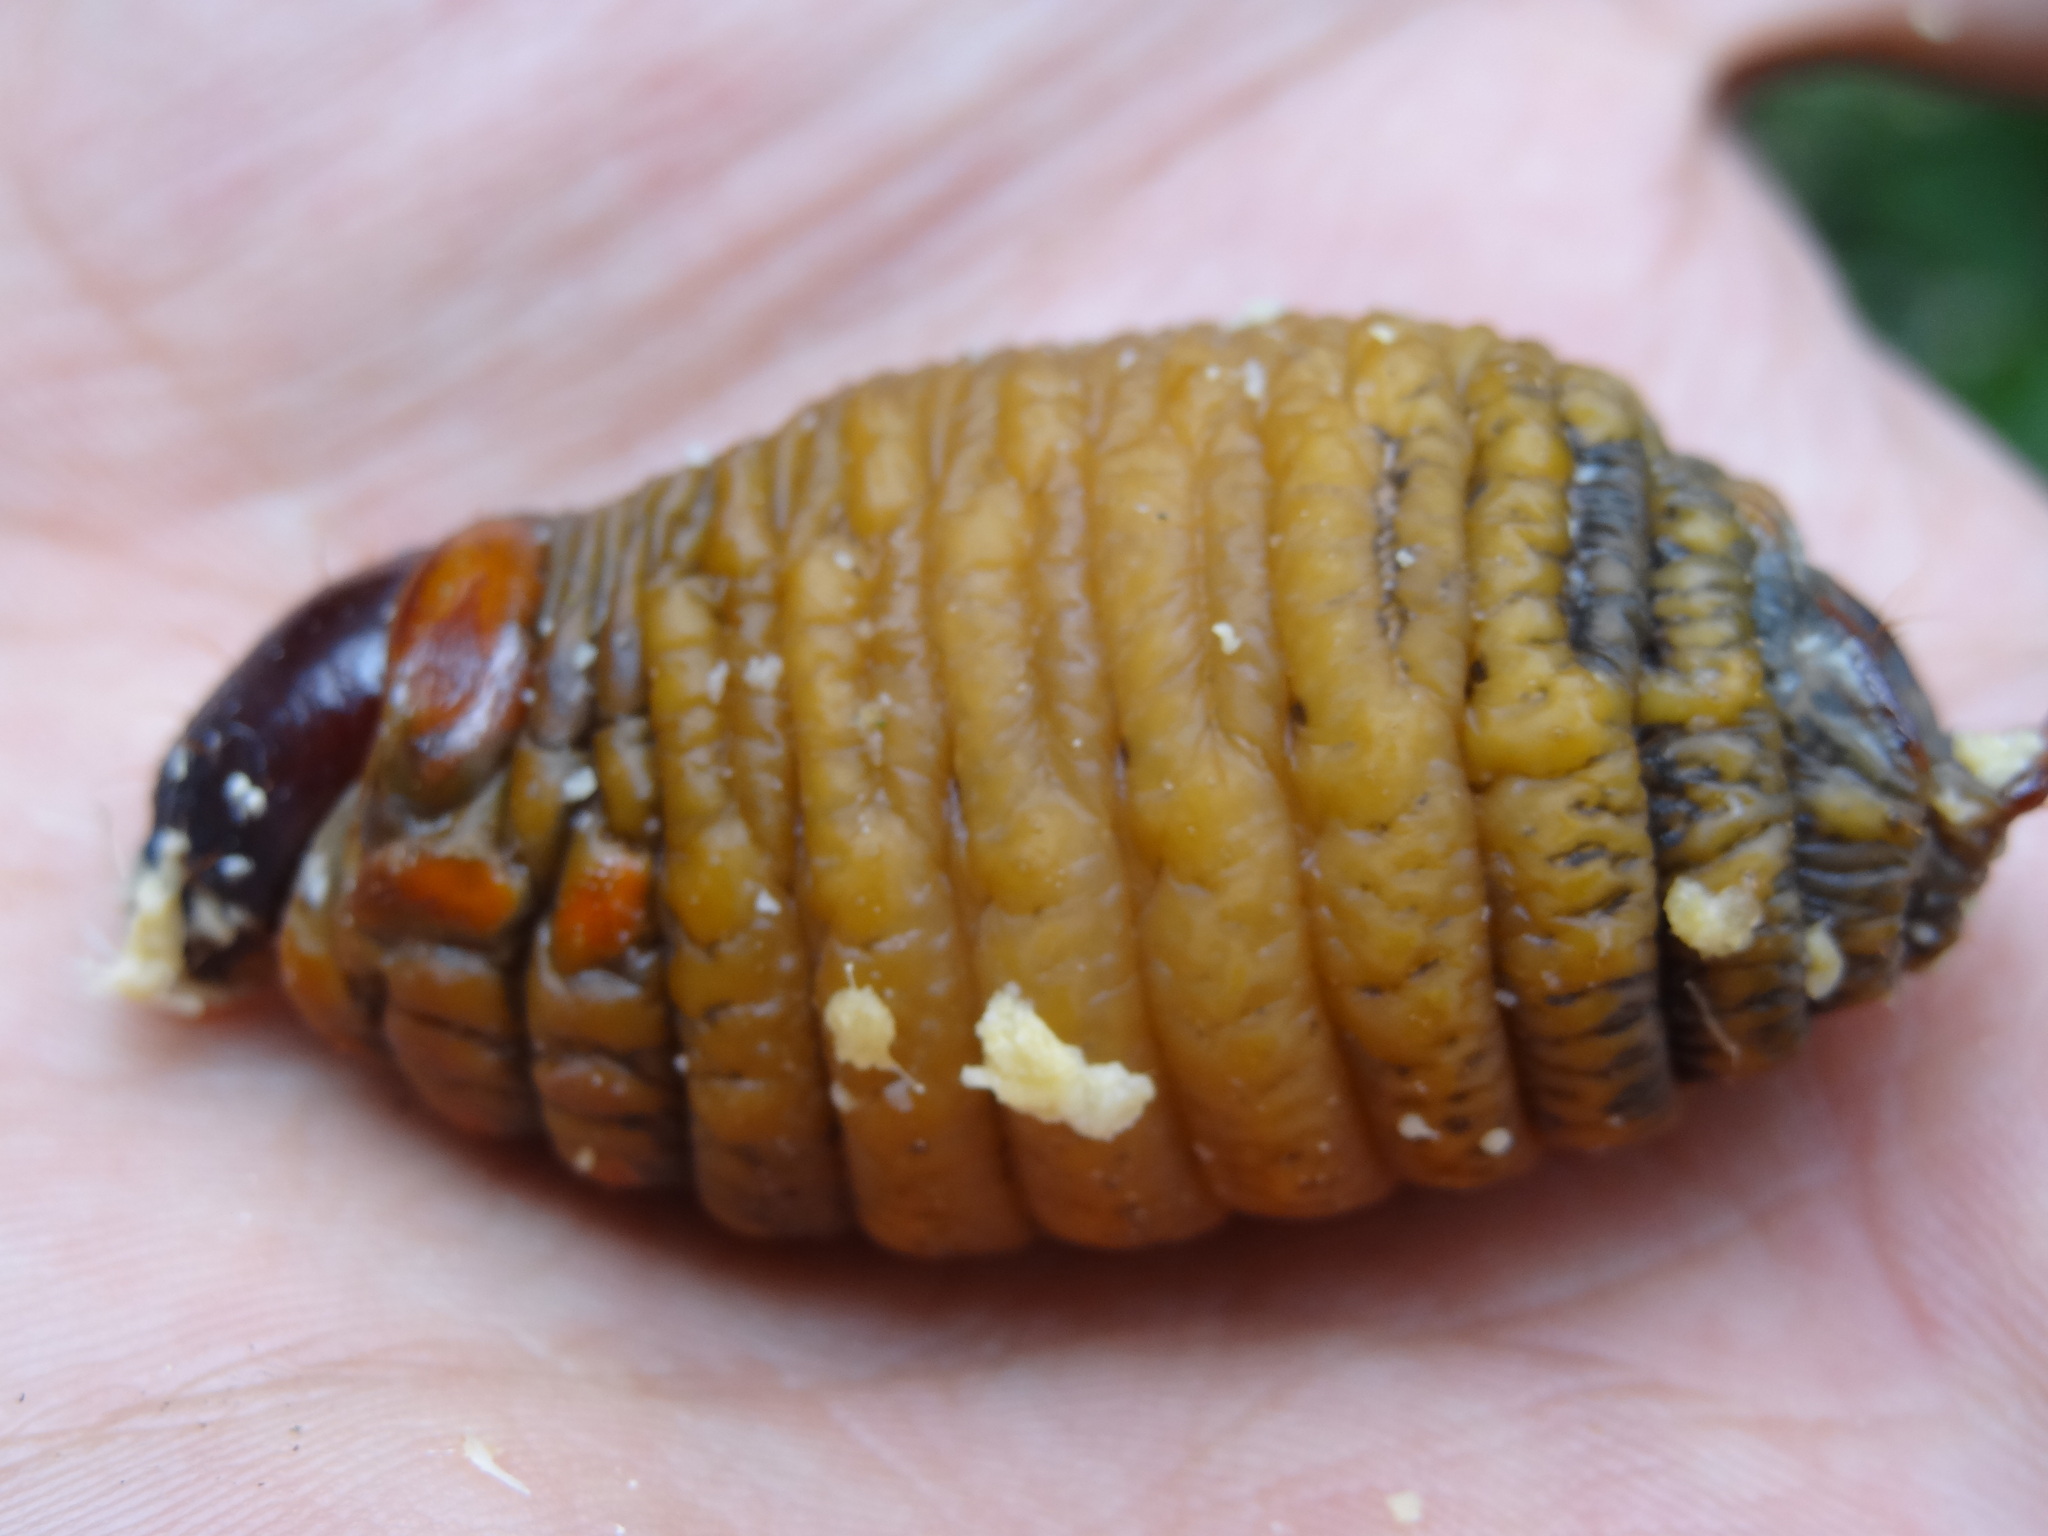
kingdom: Animalia
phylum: Arthropoda
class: Insecta
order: Coleoptera
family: Dryophthoridae
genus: Rhynchophorus
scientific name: Rhynchophorus palmarum
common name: Palm weevil
